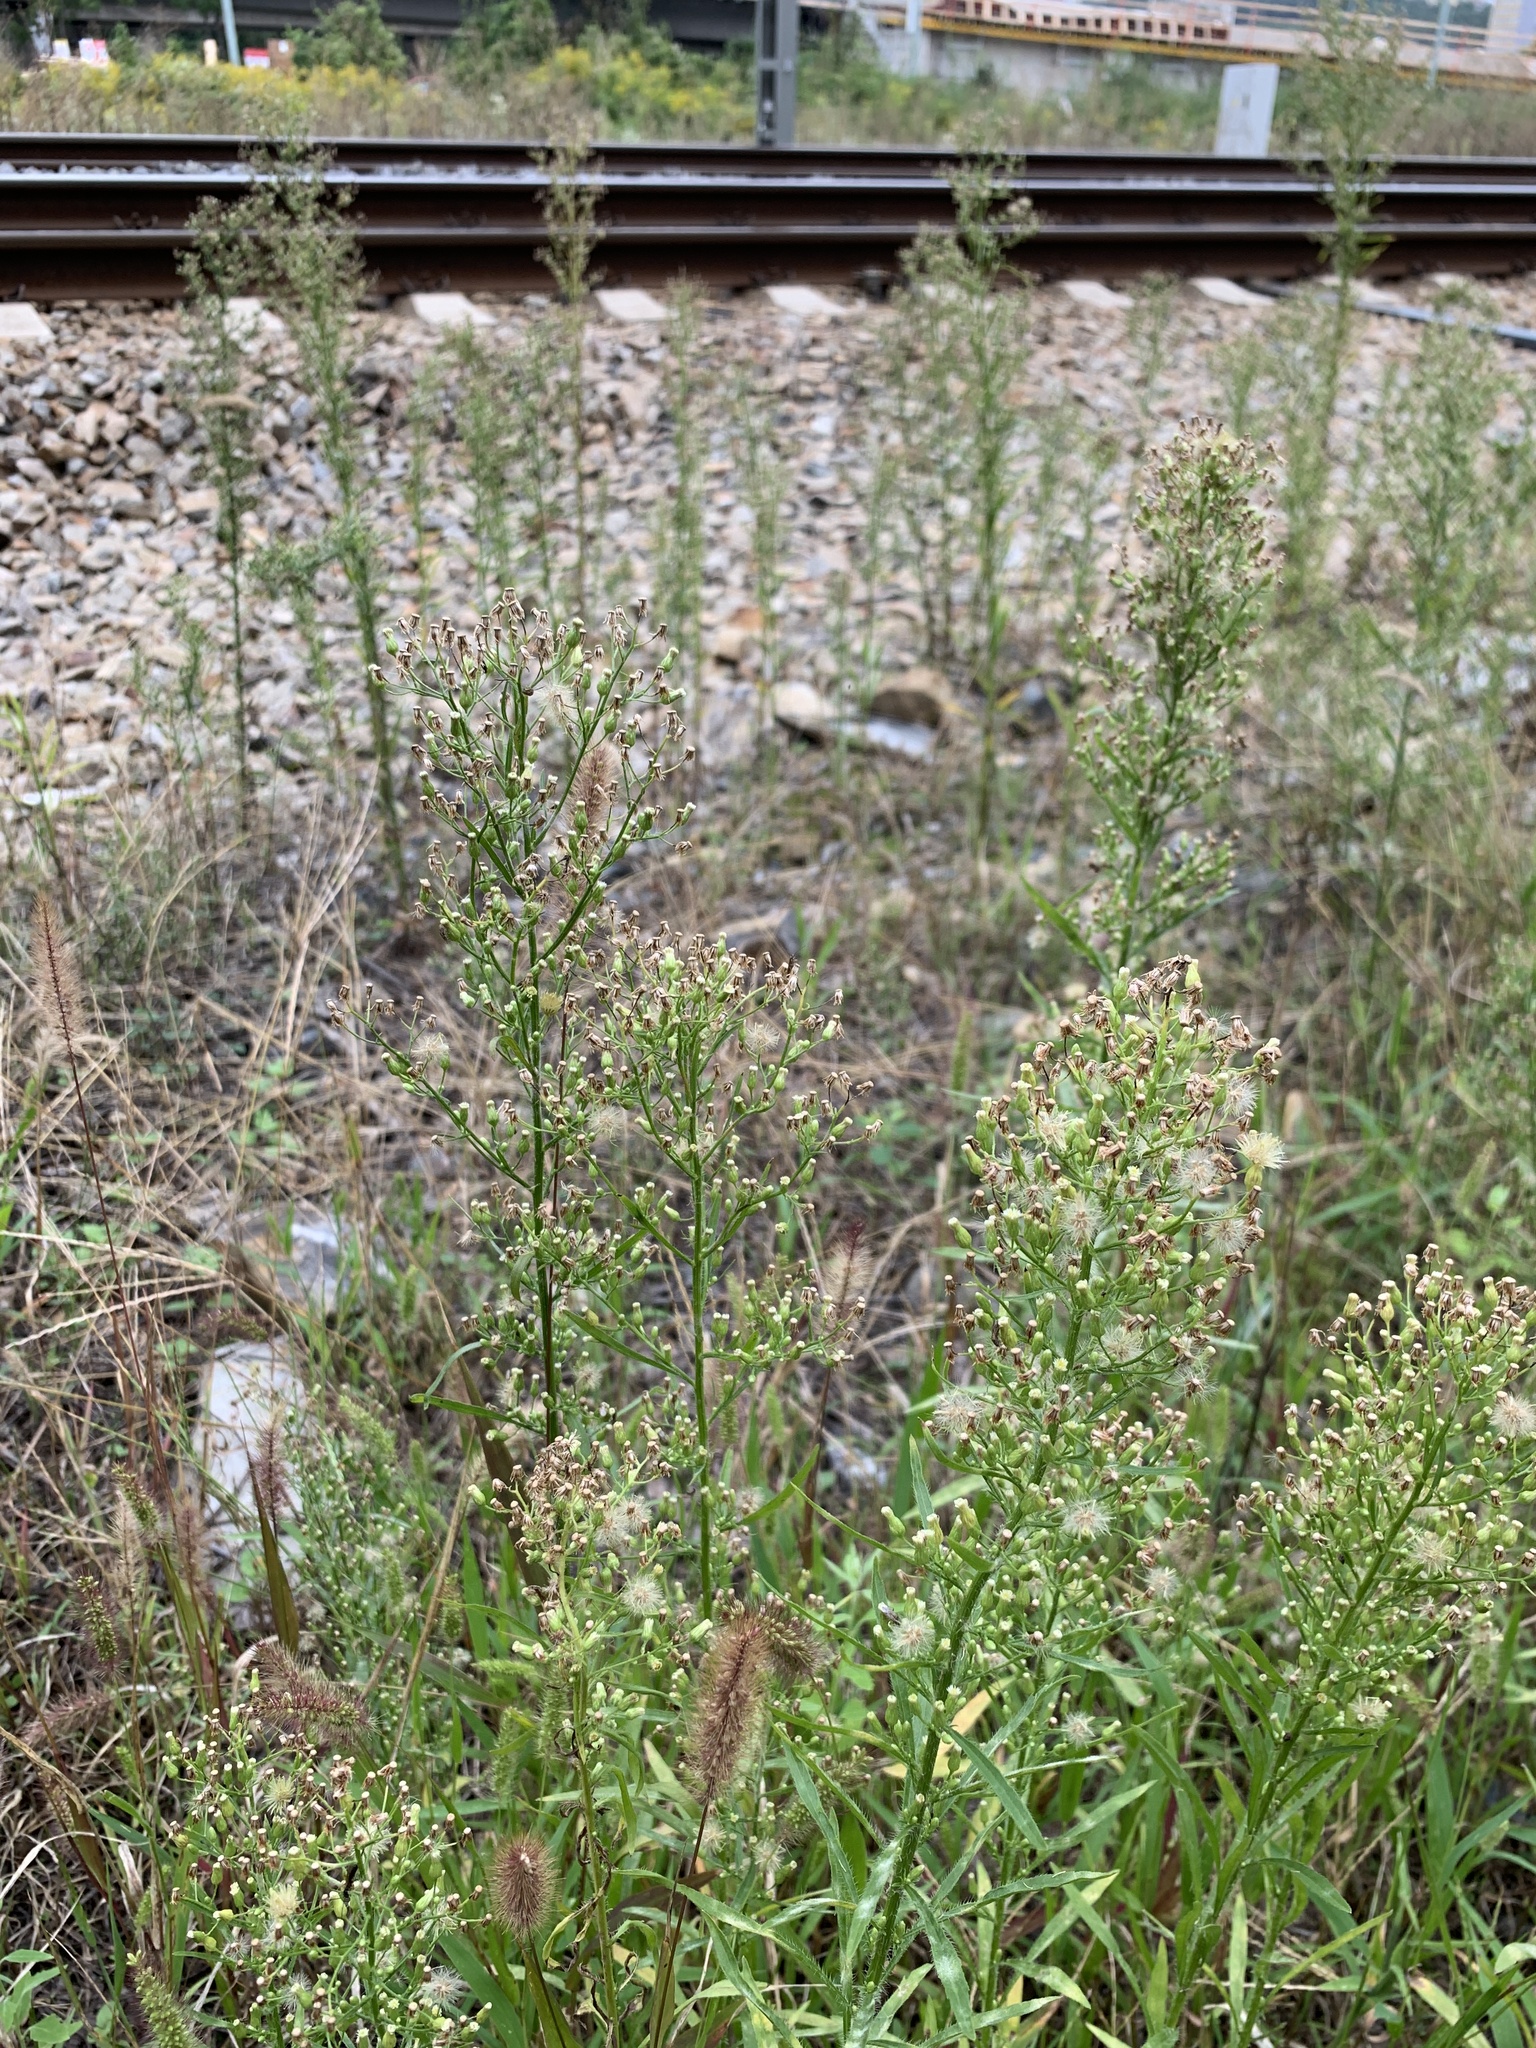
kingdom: Plantae
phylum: Tracheophyta
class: Magnoliopsida
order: Asterales
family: Asteraceae
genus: Erigeron
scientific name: Erigeron canadensis
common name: Canadian fleabane
